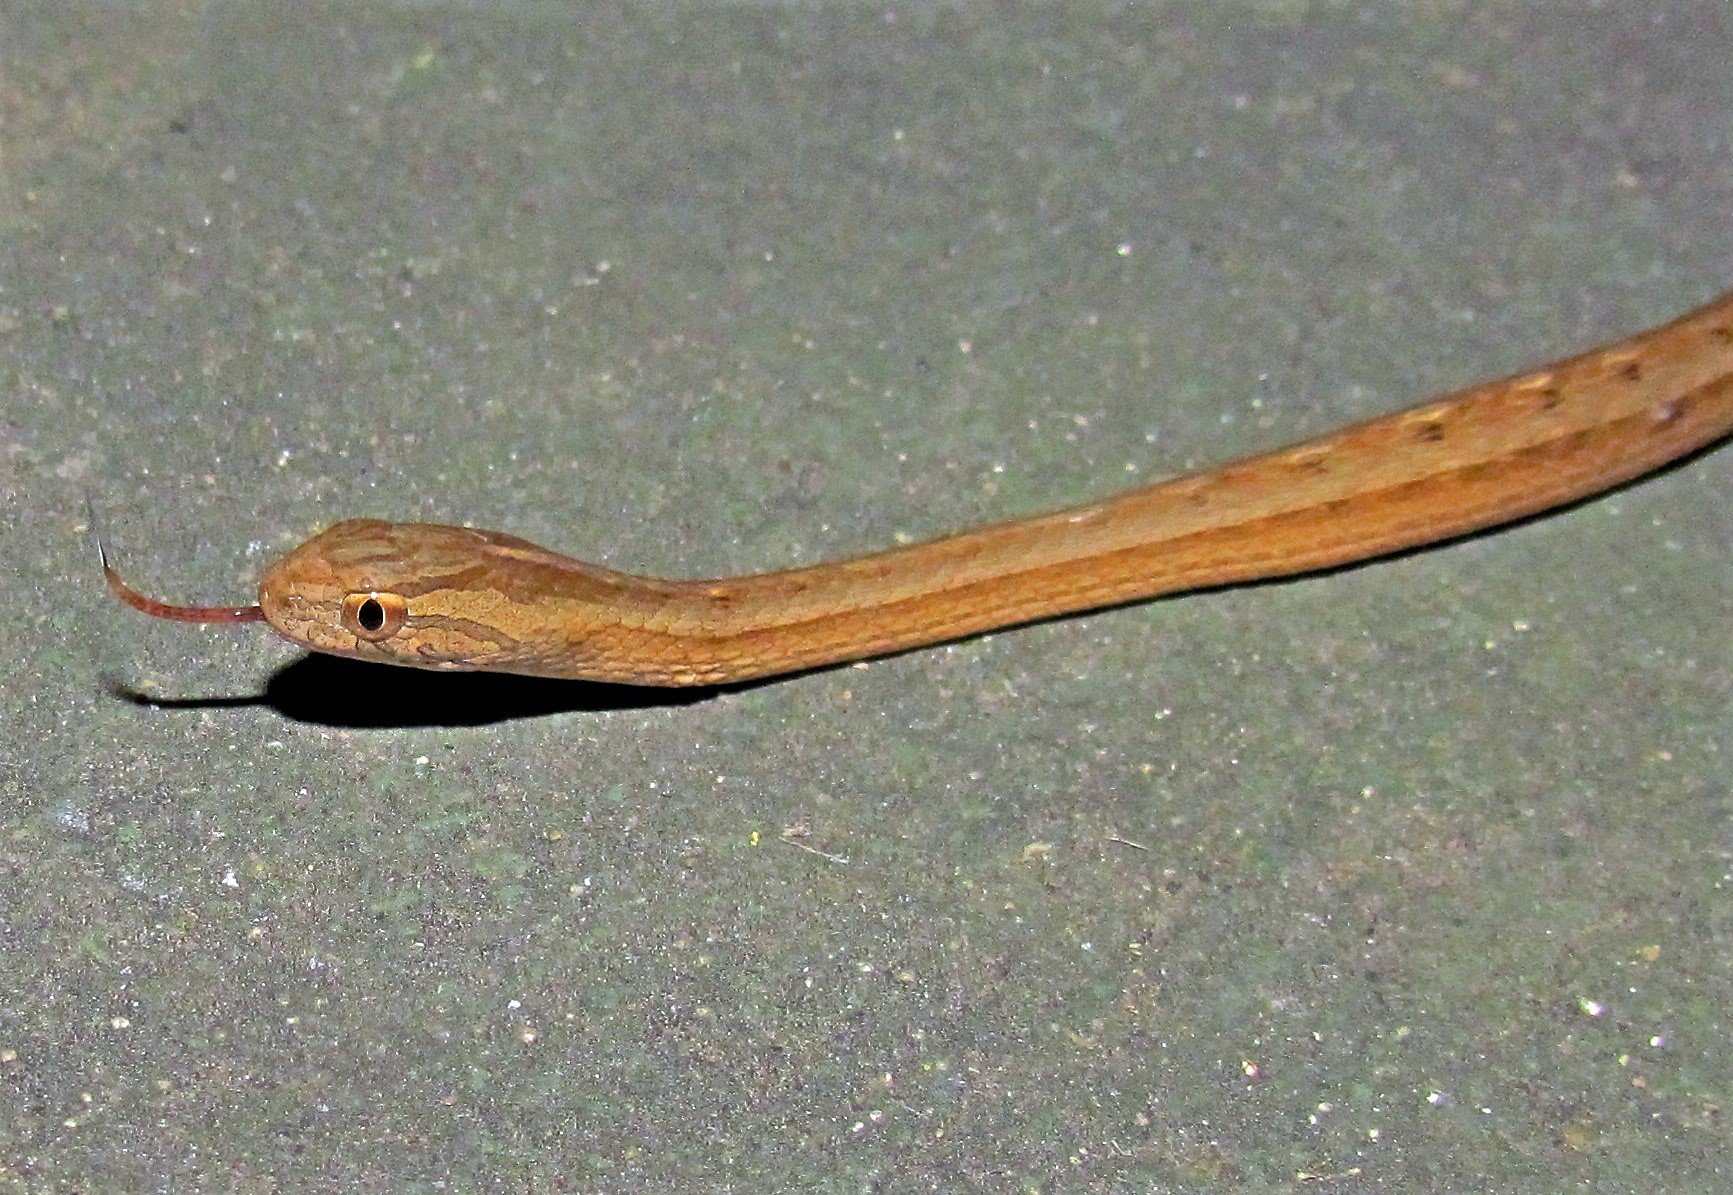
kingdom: Animalia
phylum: Chordata
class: Squamata
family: Colubridae
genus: Dryophylax
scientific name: Dryophylax
